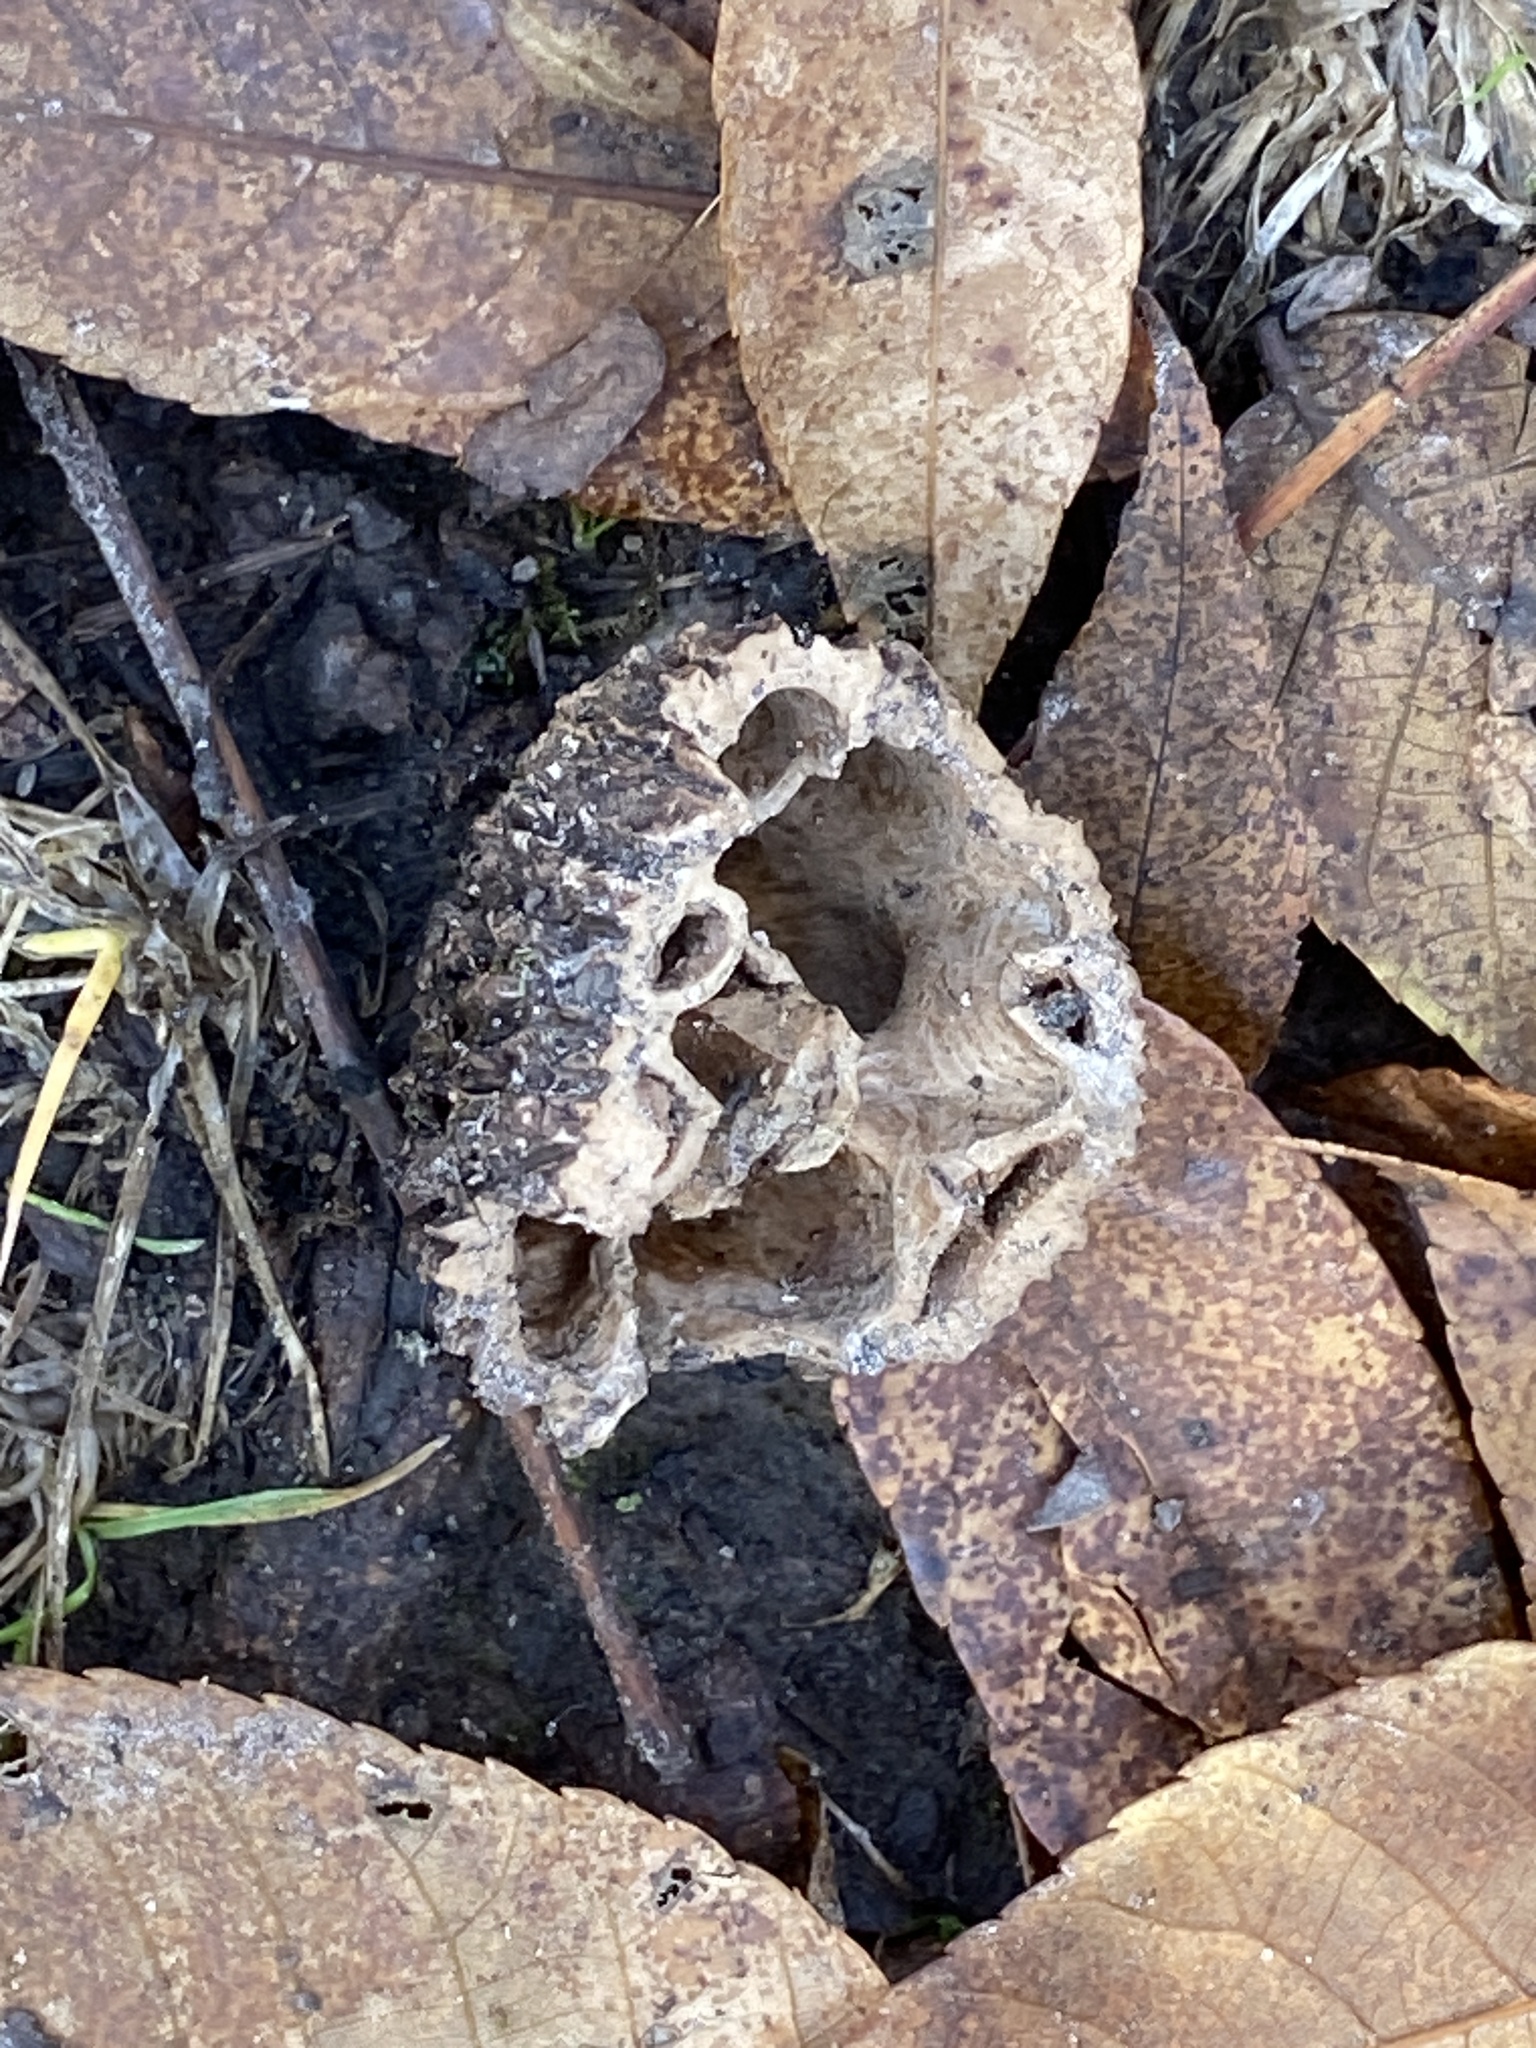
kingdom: Plantae
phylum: Tracheophyta
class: Magnoliopsida
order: Fagales
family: Juglandaceae
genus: Juglans
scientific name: Juglans nigra
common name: Black walnut
